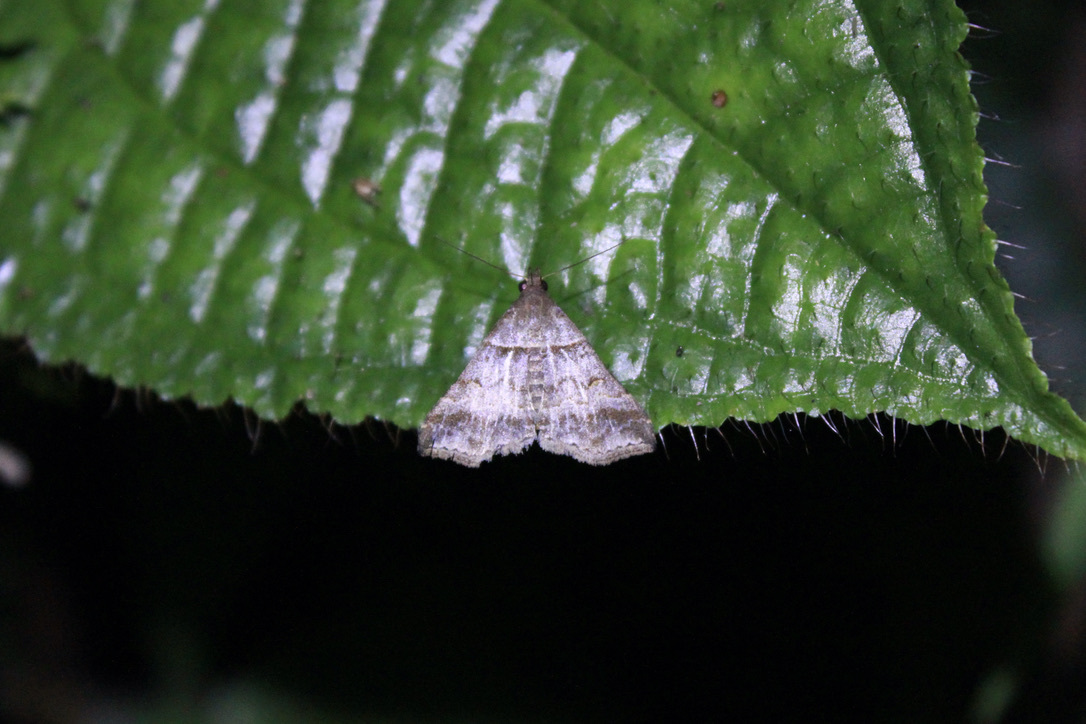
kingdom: Animalia
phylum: Arthropoda
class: Insecta
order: Lepidoptera
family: Erebidae
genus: Heterogramma
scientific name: Heterogramma circumflexalis
